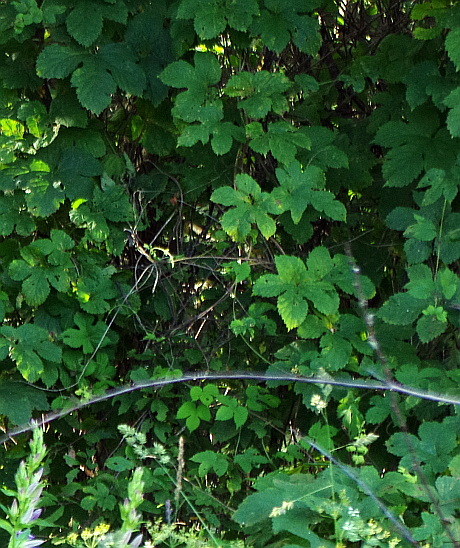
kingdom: Plantae
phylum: Tracheophyta
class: Magnoliopsida
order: Rosales
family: Cannabaceae
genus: Humulus
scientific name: Humulus lupulus
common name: Hop
